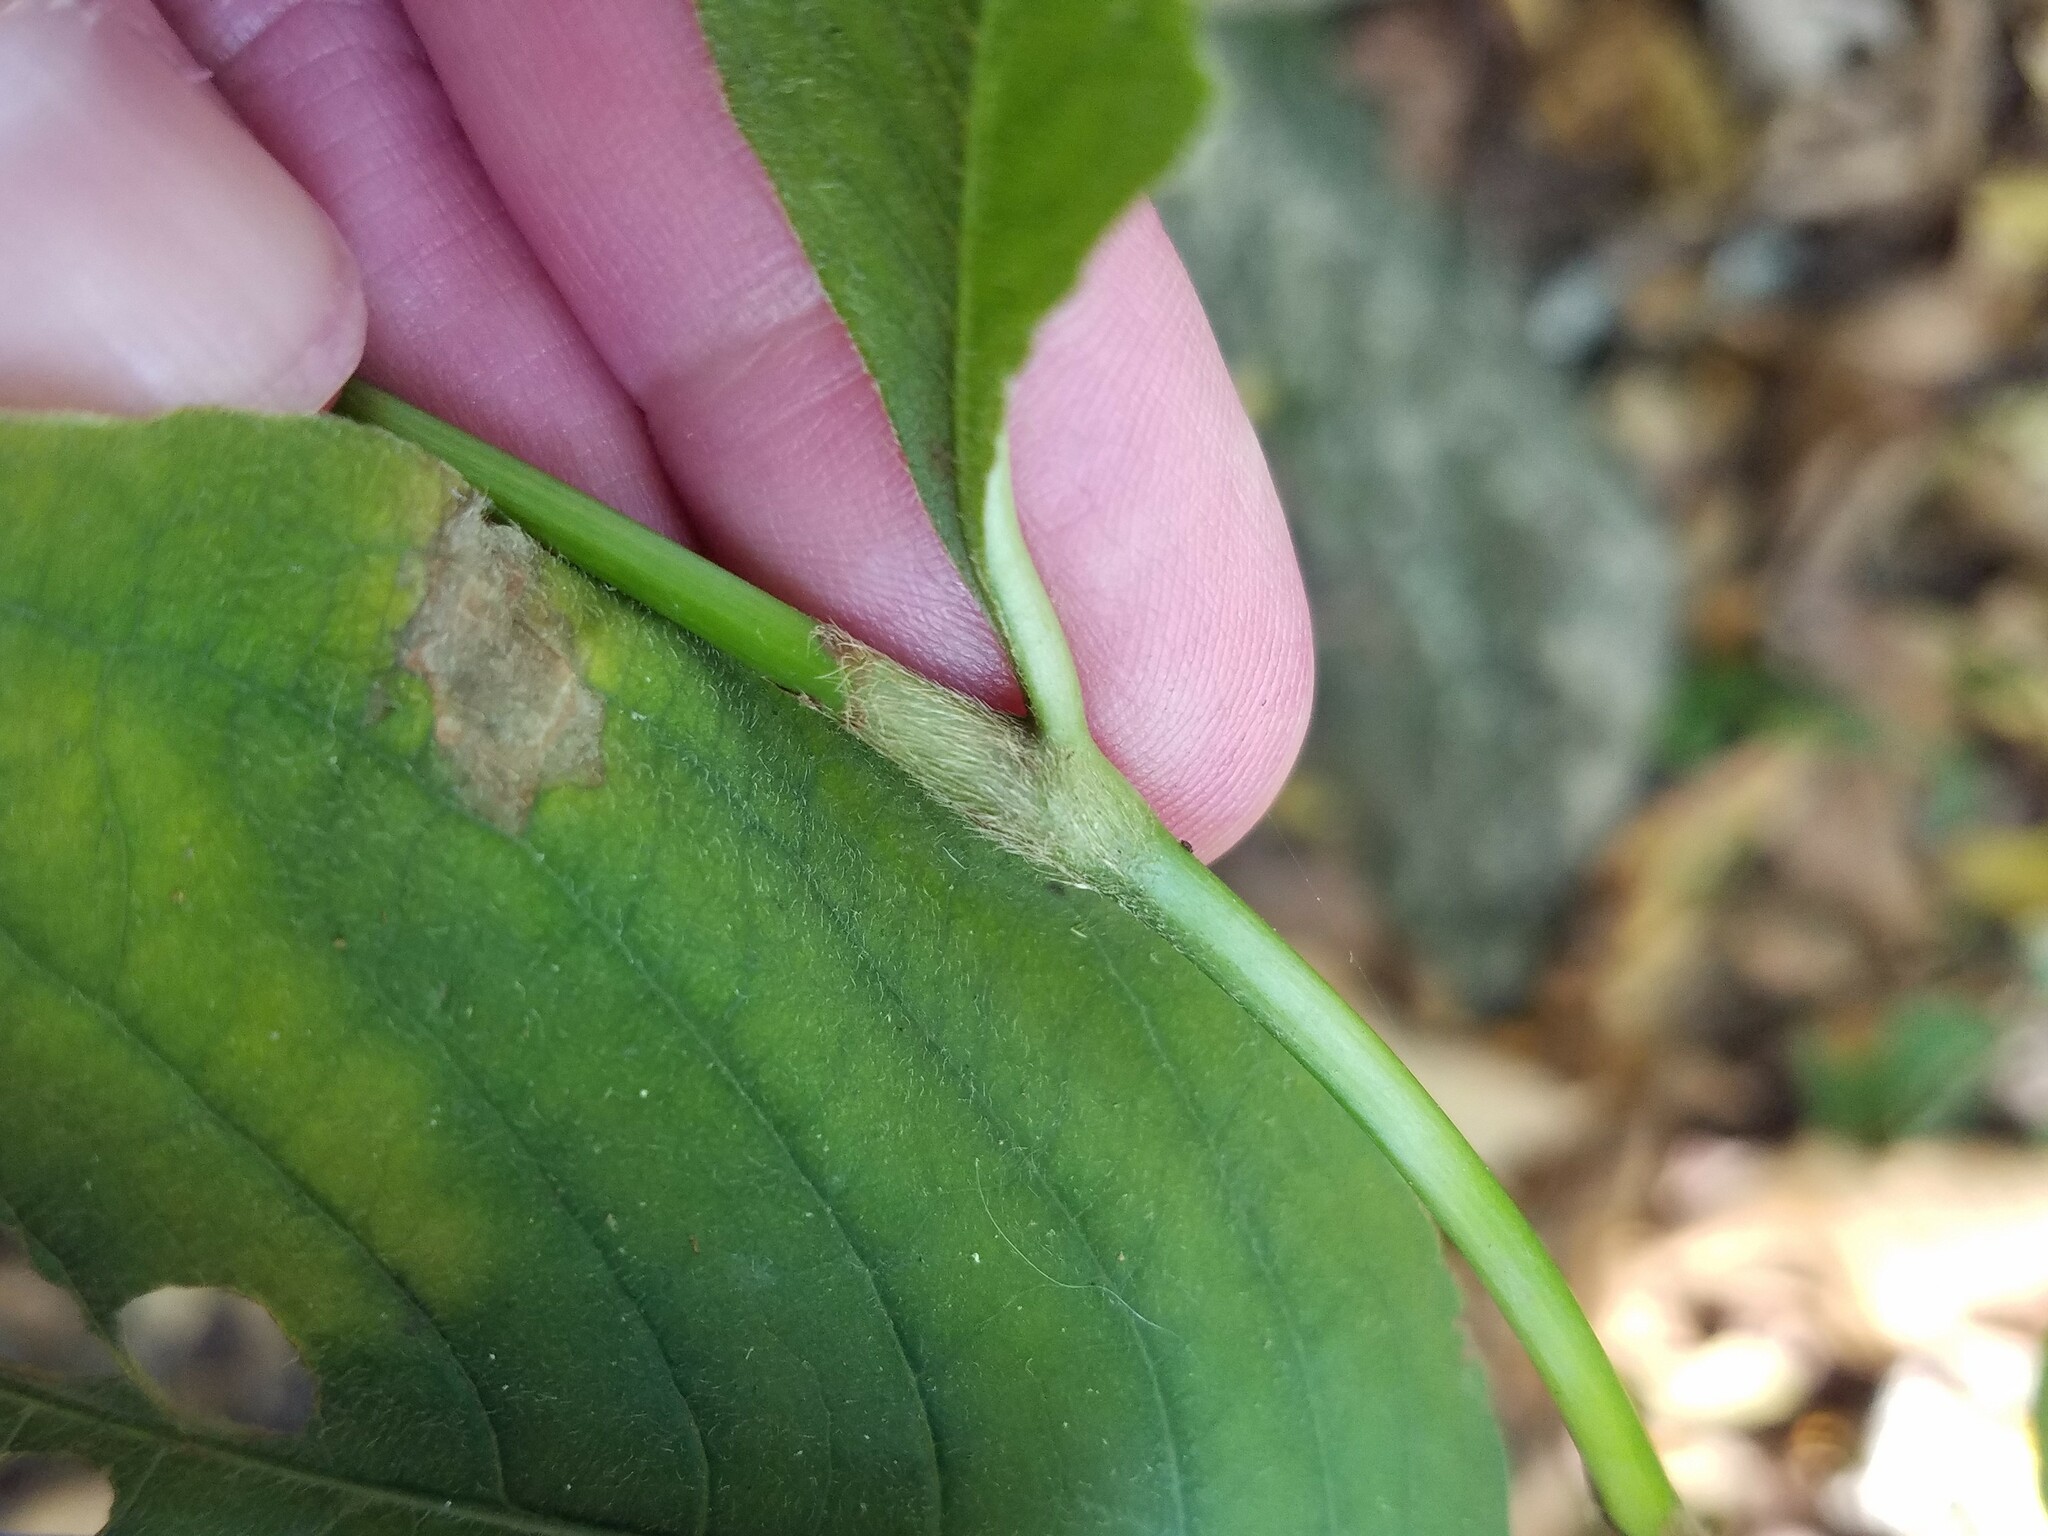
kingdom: Plantae
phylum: Tracheophyta
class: Magnoliopsida
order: Caryophyllales
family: Polygonaceae
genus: Persicaria
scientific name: Persicaria virginiana
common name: Jumpseed
